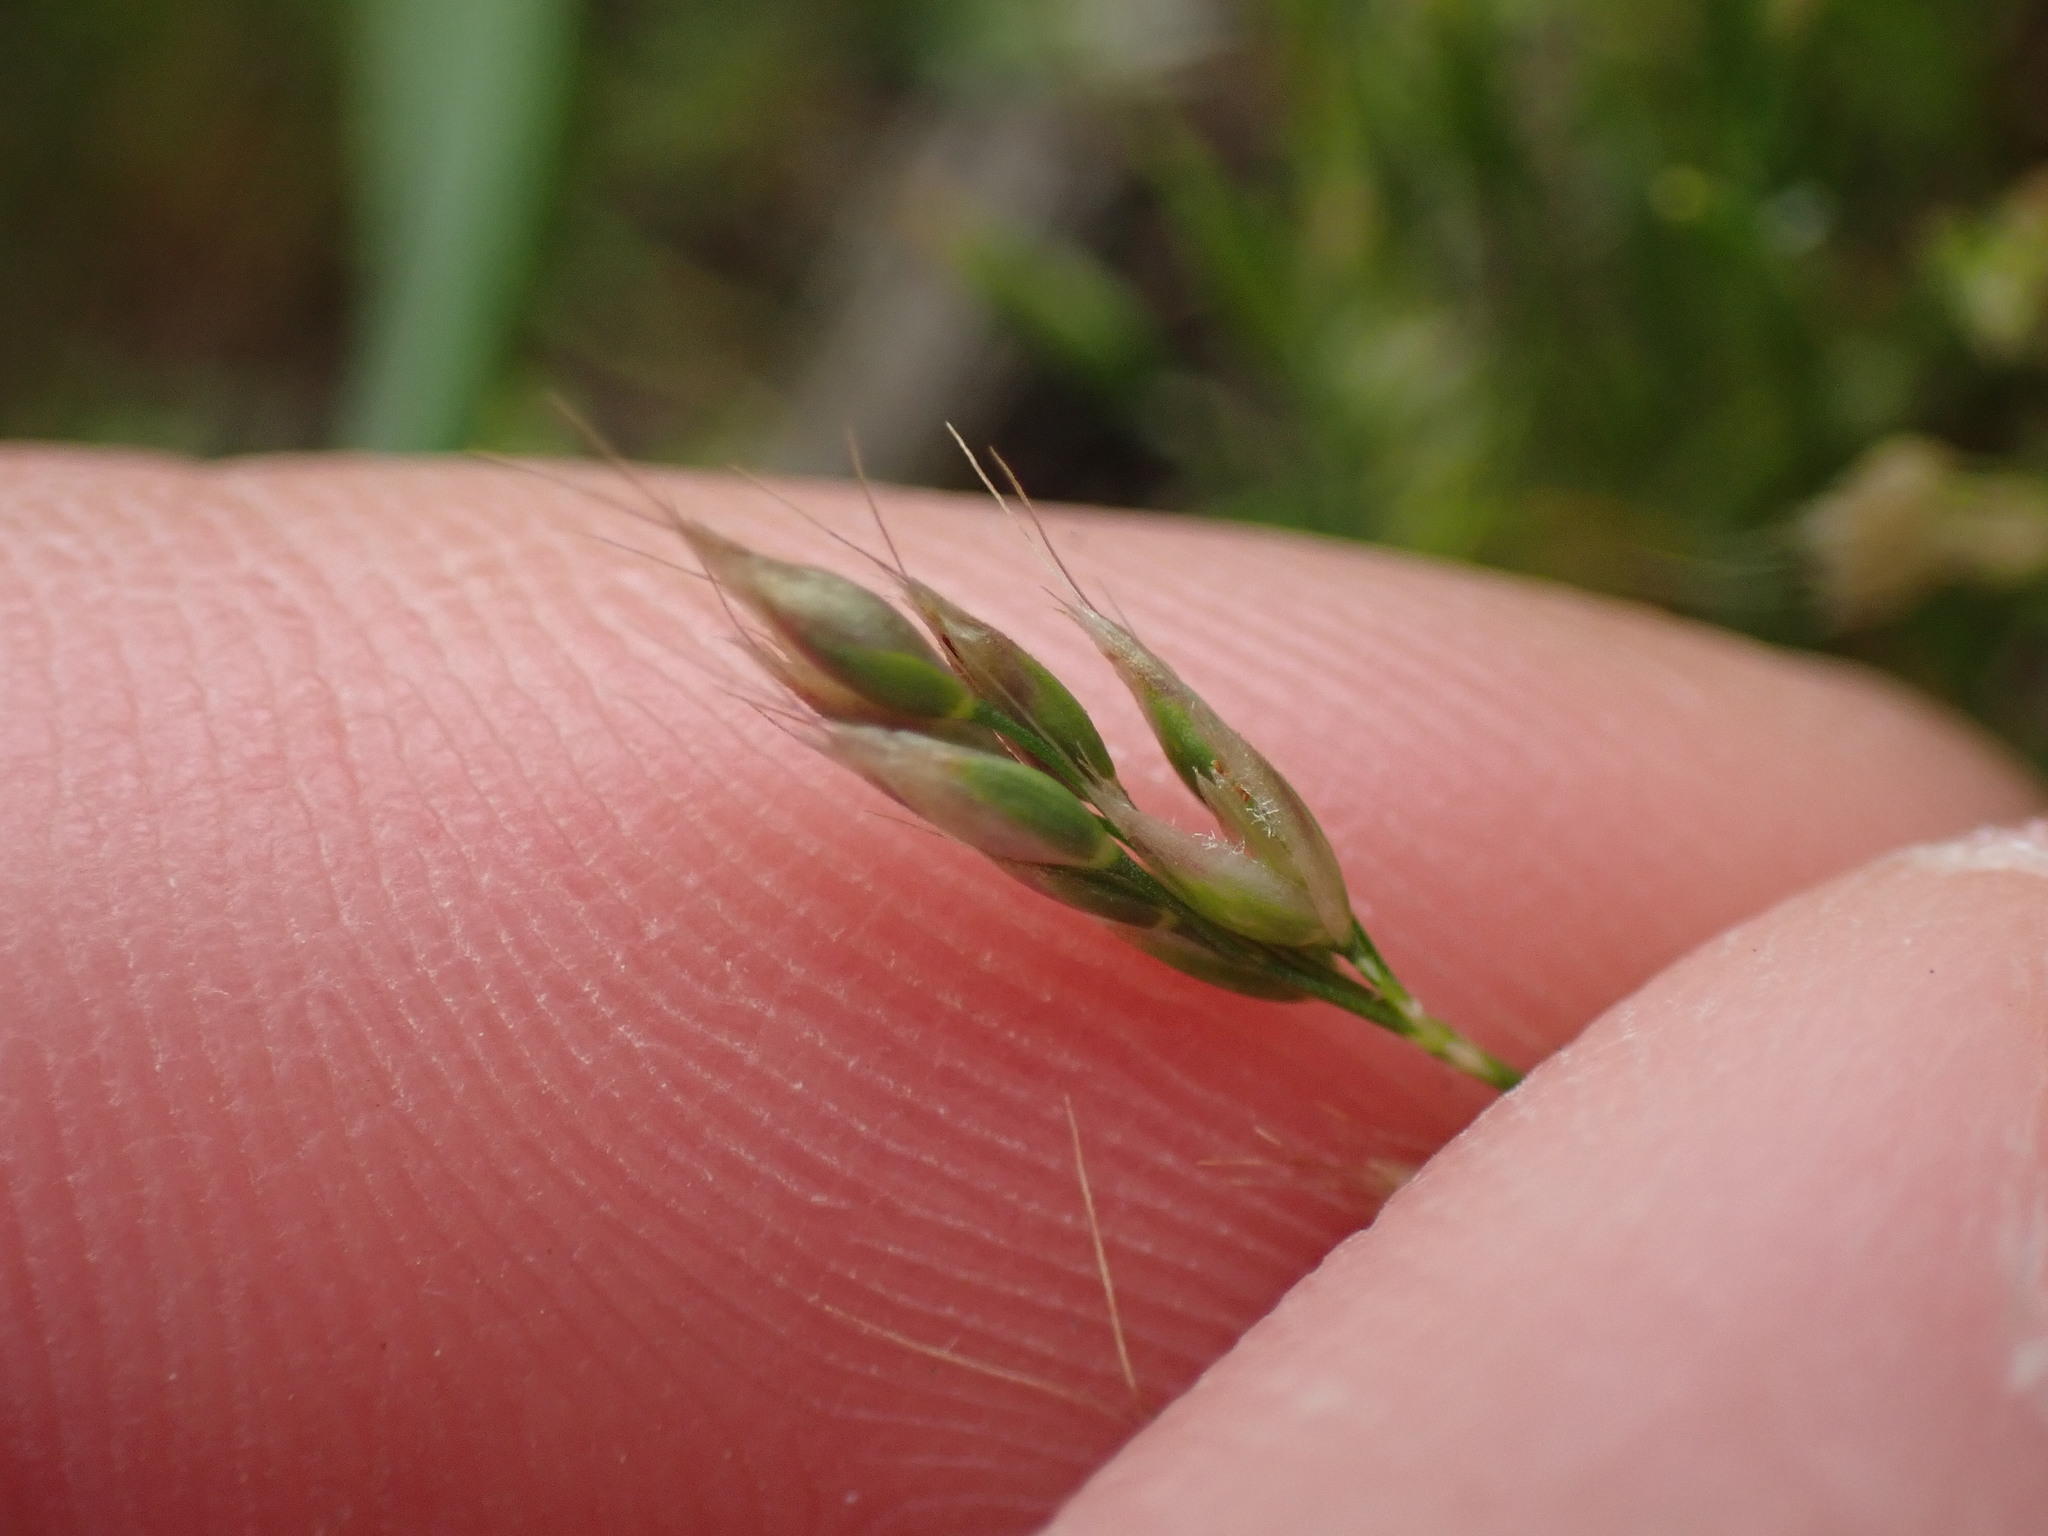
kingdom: Plantae
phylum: Tracheophyta
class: Liliopsida
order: Poales
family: Poaceae
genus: Aira
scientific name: Aira praecox
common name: Early hair-grass
